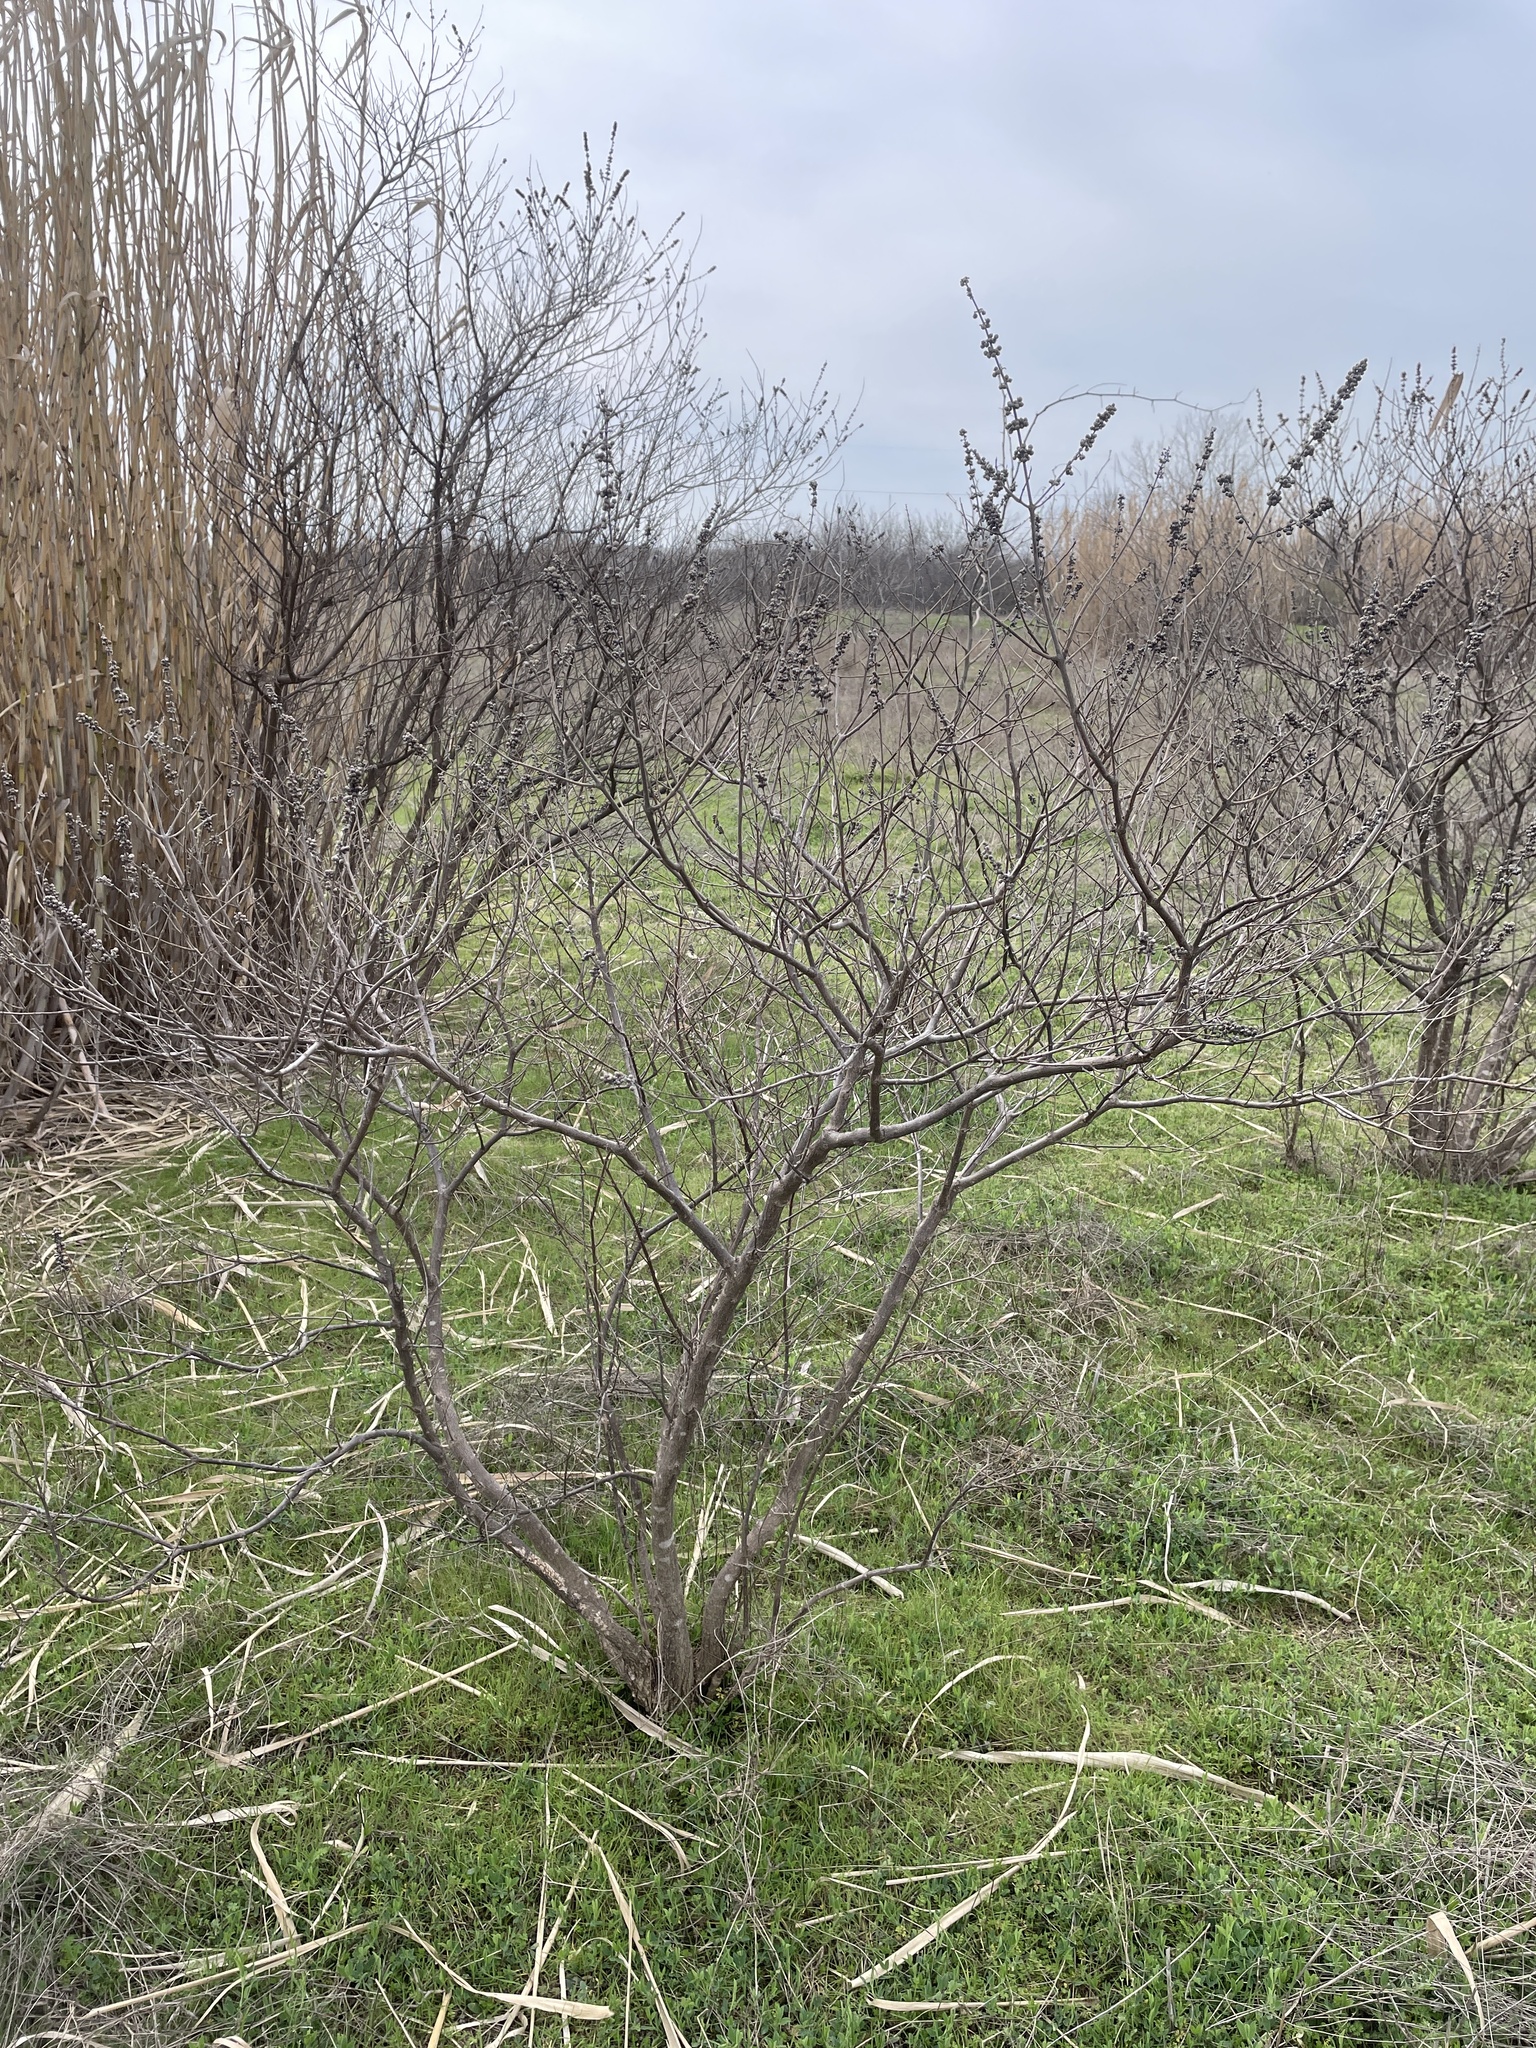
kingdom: Plantae
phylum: Tracheophyta
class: Magnoliopsida
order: Lamiales
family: Lamiaceae
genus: Vitex
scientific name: Vitex agnus-castus
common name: Chasteberry
